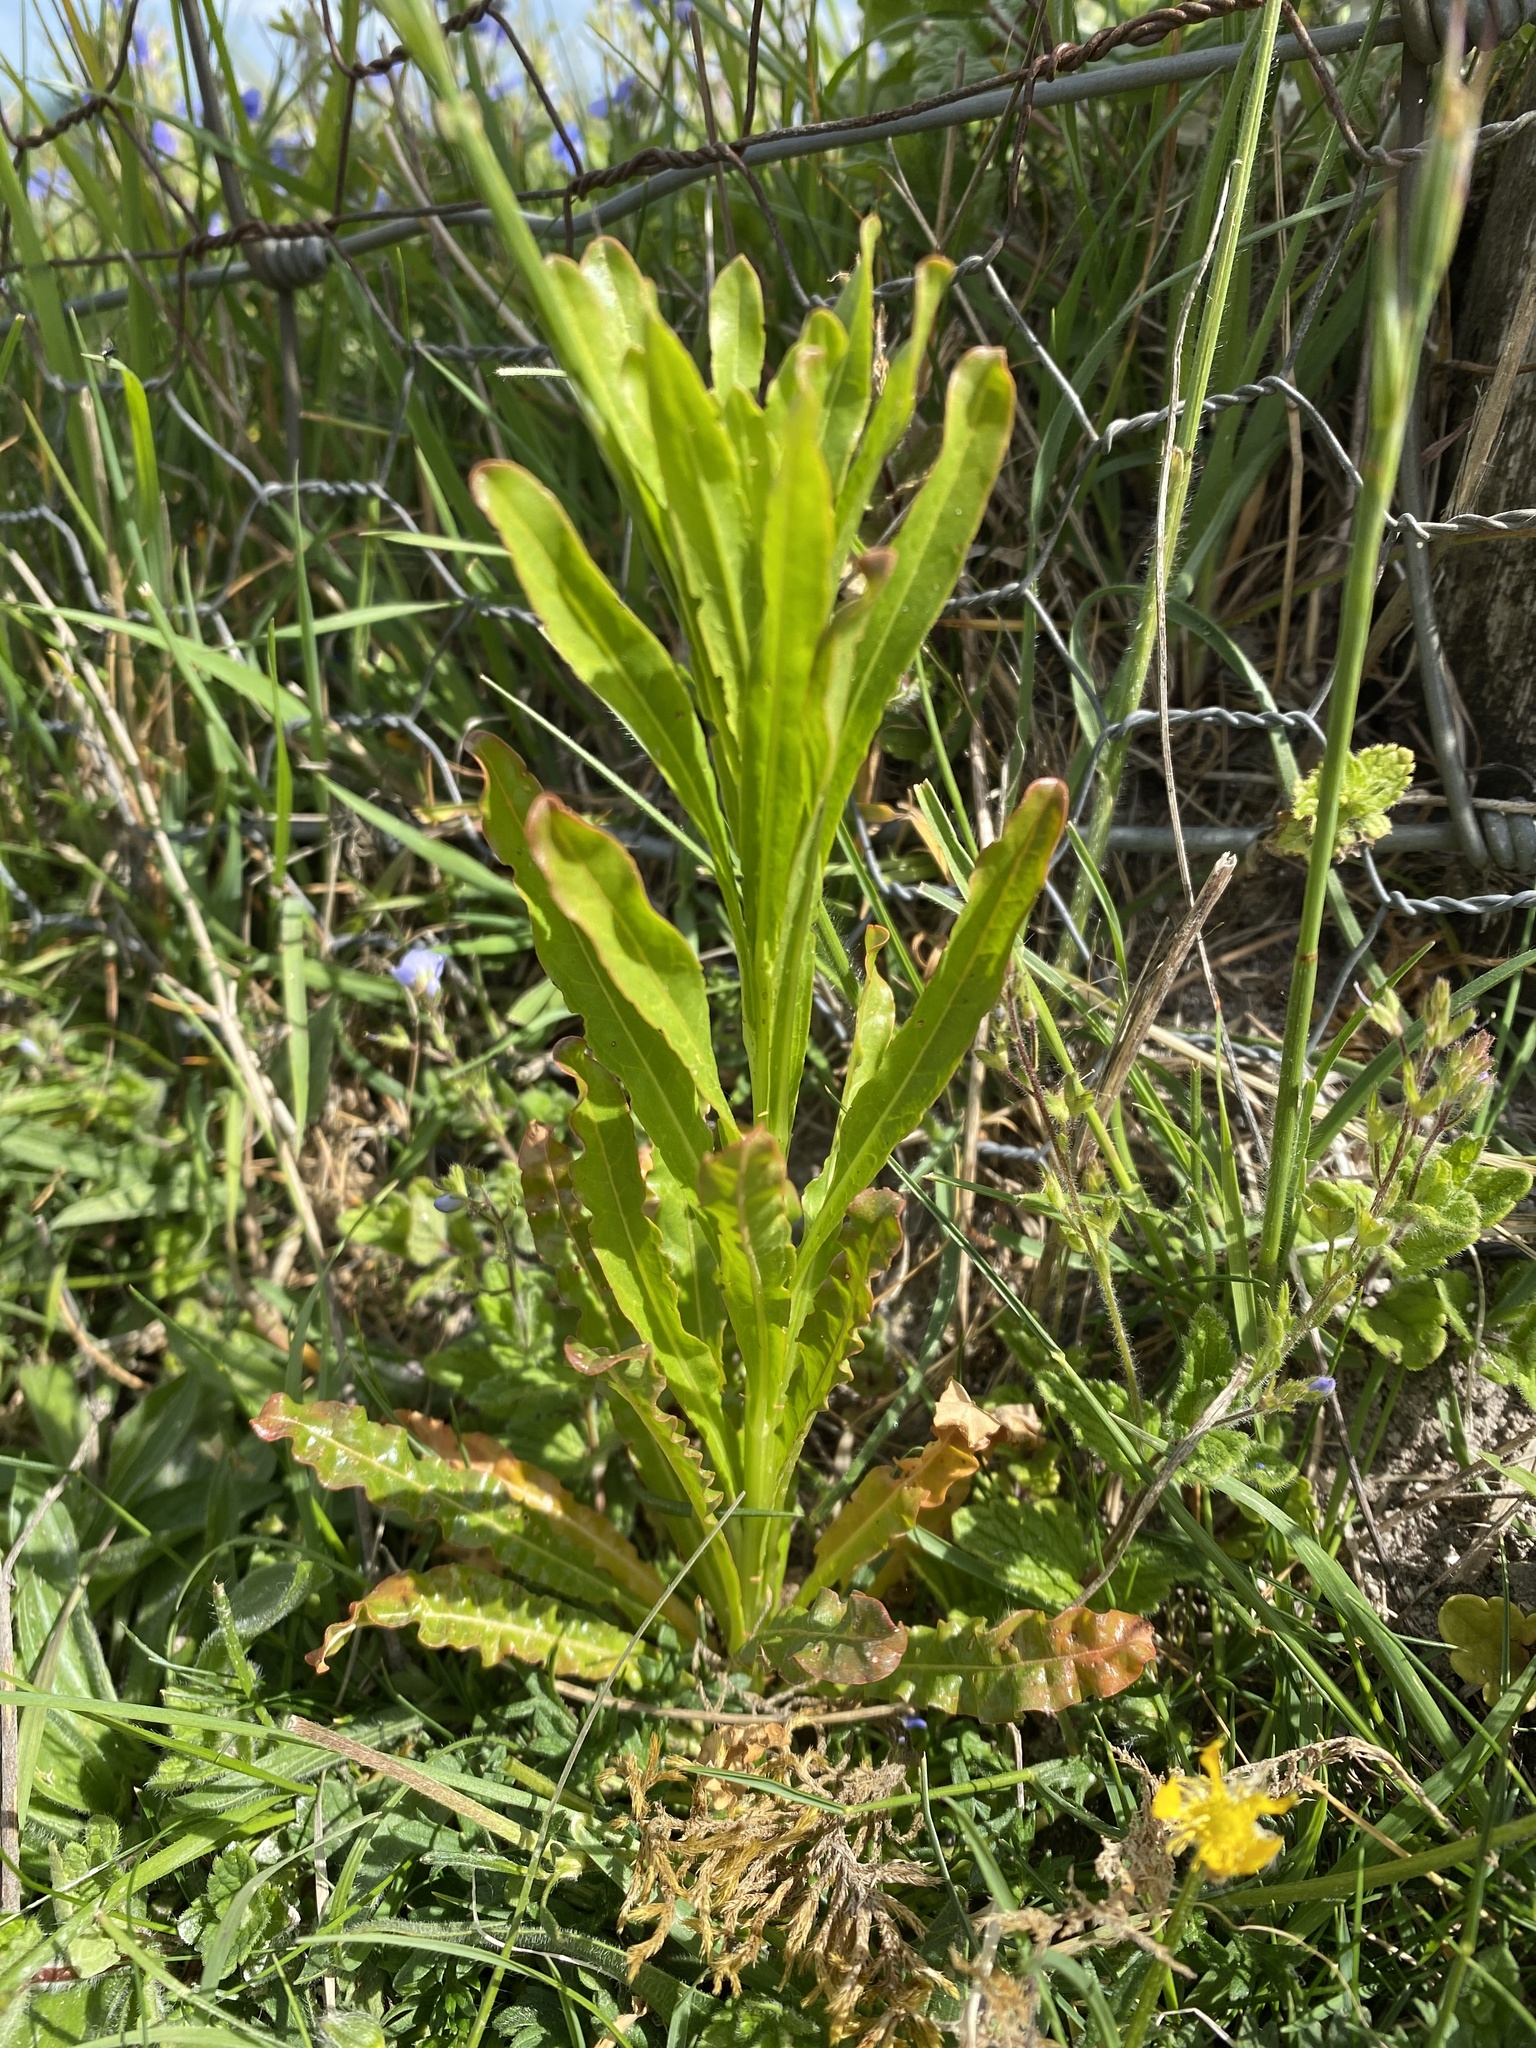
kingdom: Plantae
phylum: Tracheophyta
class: Magnoliopsida
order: Brassicales
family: Resedaceae
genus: Reseda
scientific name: Reseda luteola
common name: Weld
